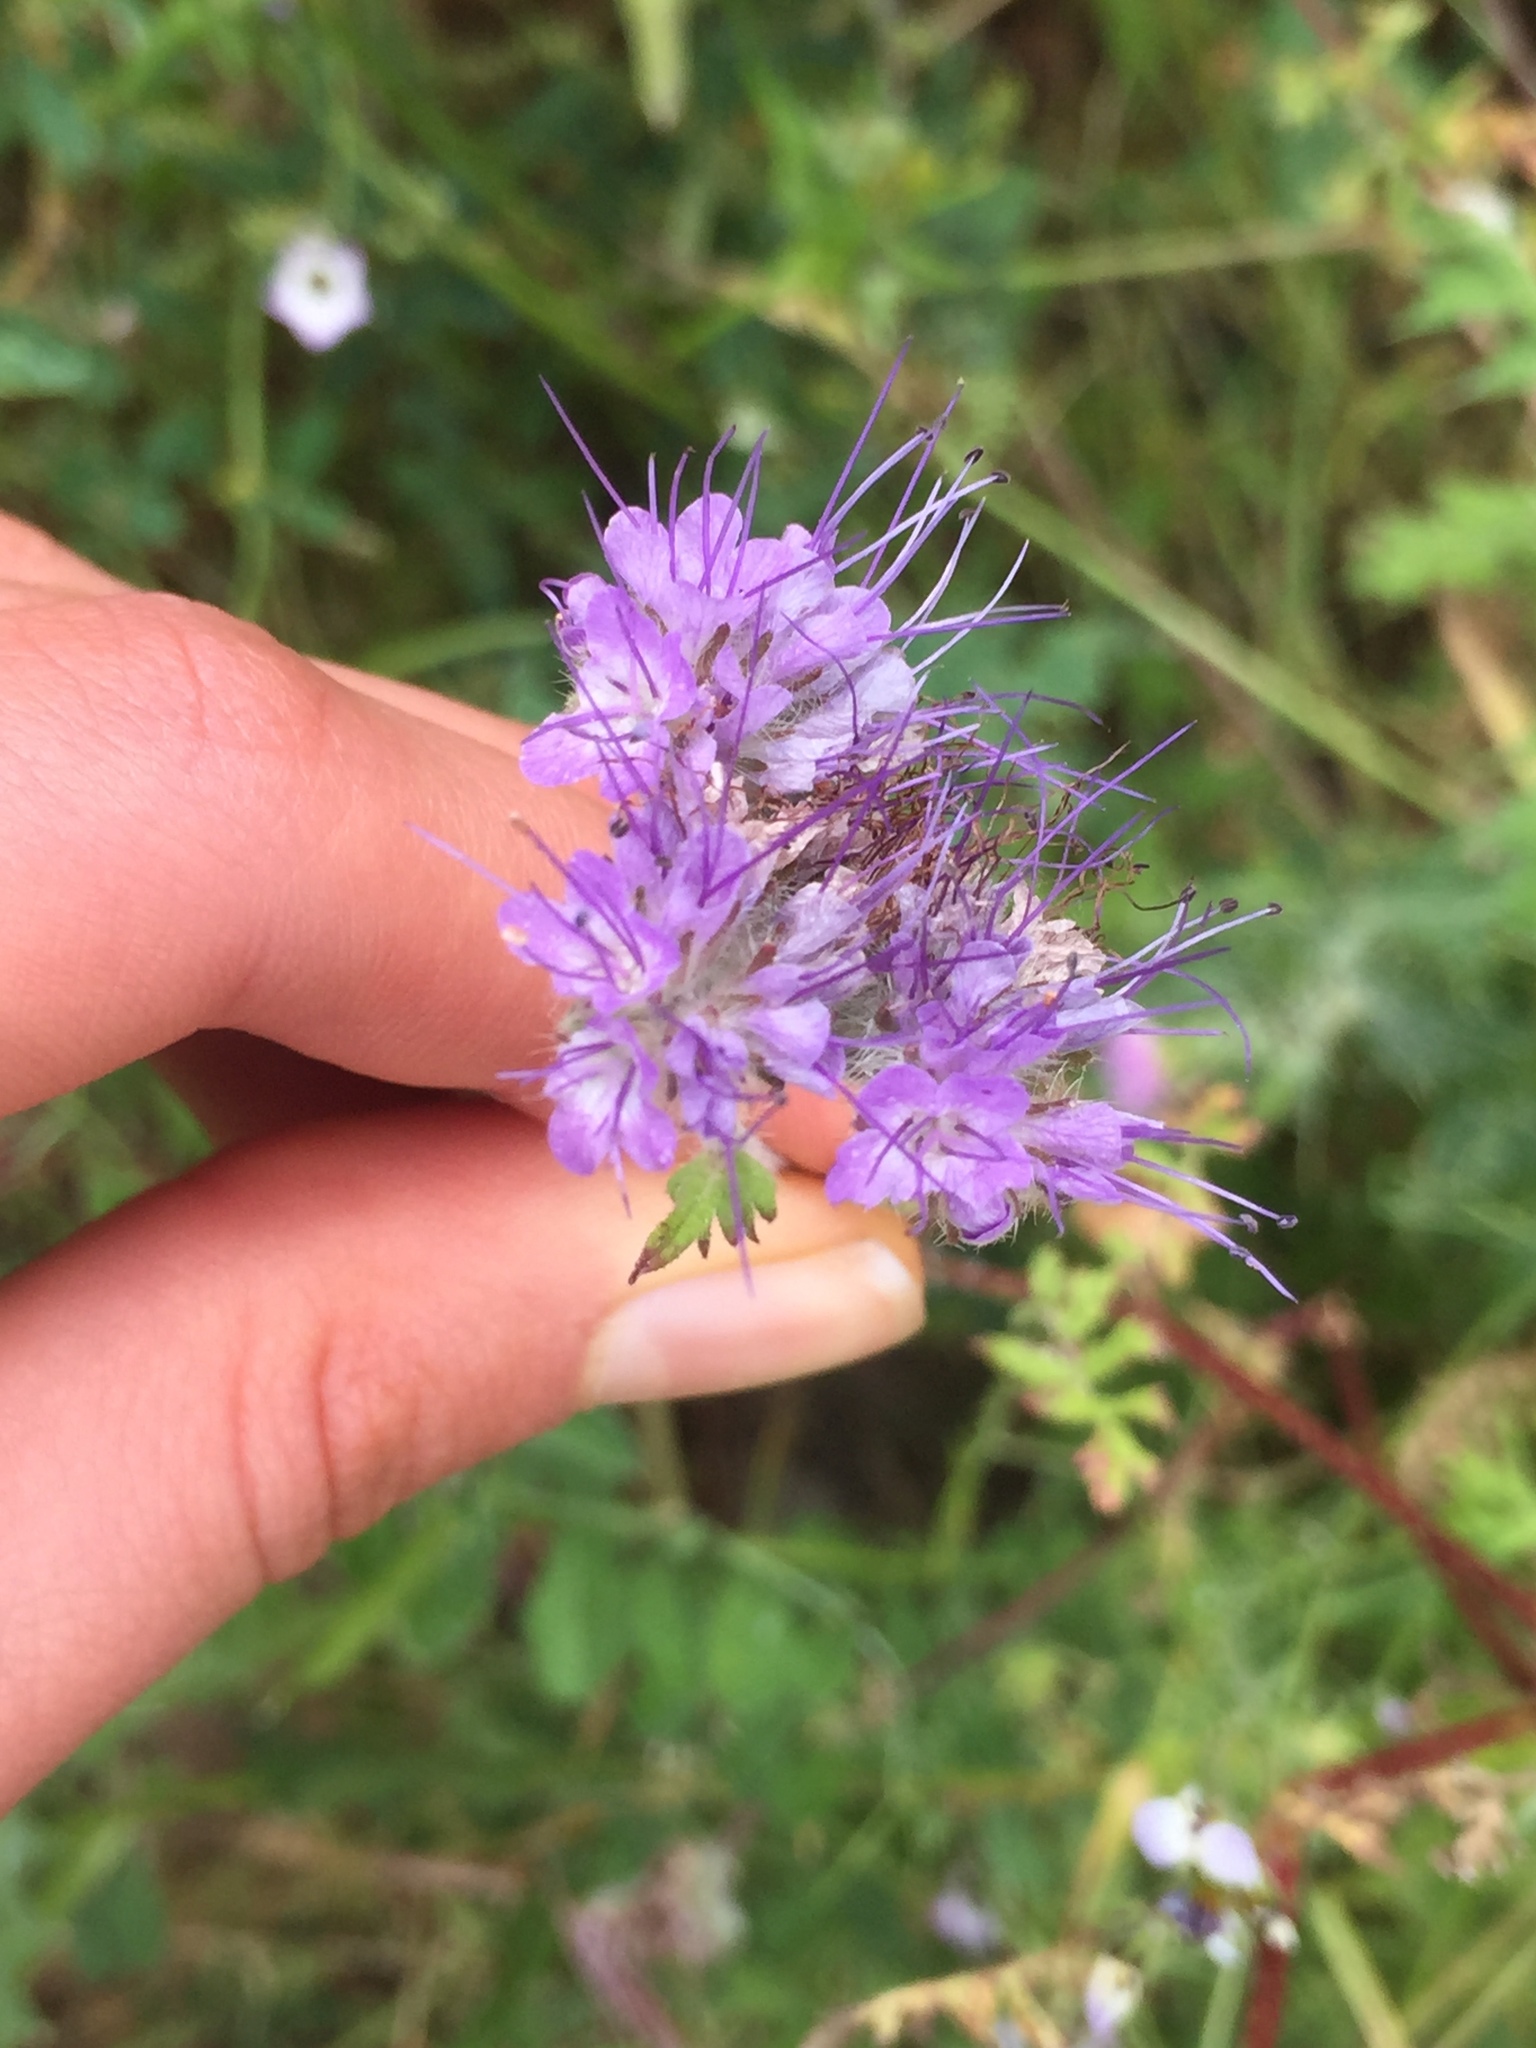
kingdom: Plantae
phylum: Tracheophyta
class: Magnoliopsida
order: Boraginales
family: Hydrophyllaceae
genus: Phacelia
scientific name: Phacelia tanacetifolia
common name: Phacelia
